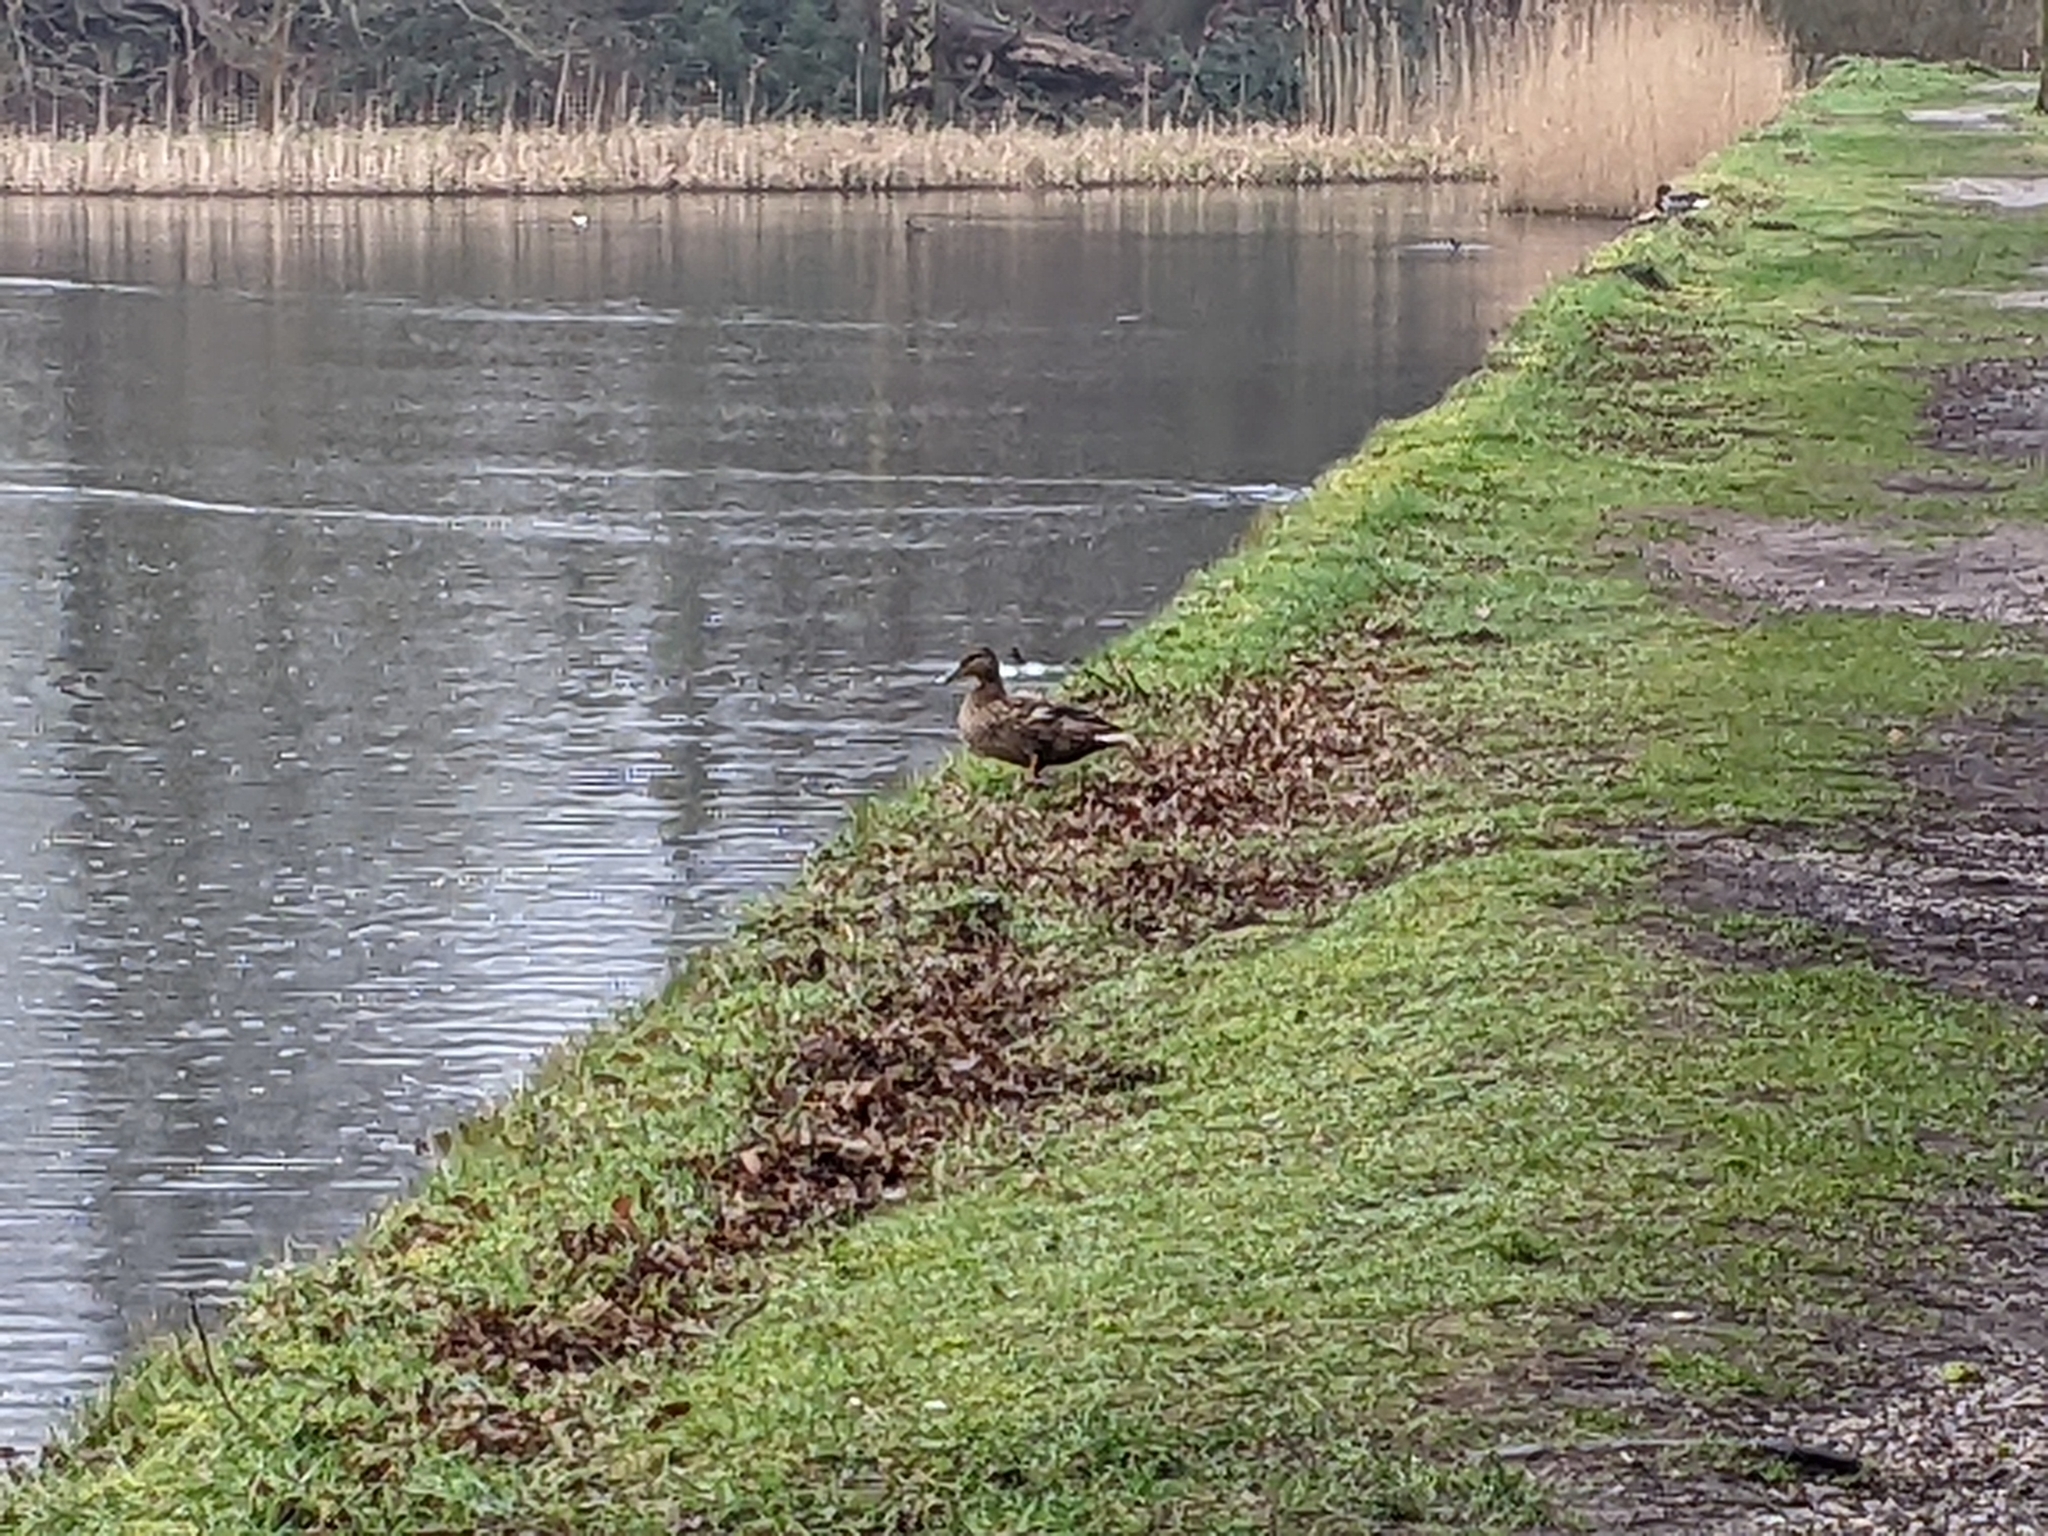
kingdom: Animalia
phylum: Chordata
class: Aves
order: Anseriformes
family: Anatidae
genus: Anas
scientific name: Anas platyrhynchos
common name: Mallard
